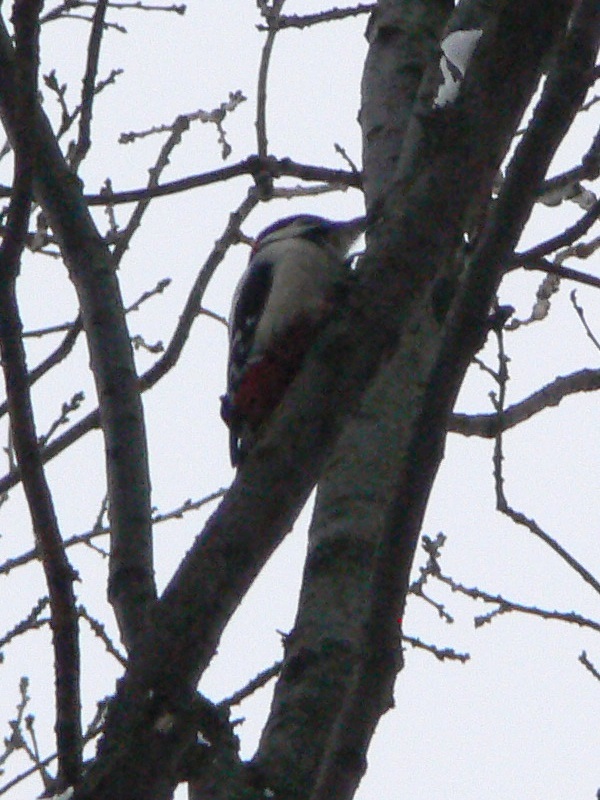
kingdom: Animalia
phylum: Chordata
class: Aves
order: Piciformes
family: Picidae
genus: Dendrocopos
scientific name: Dendrocopos major
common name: Great spotted woodpecker
